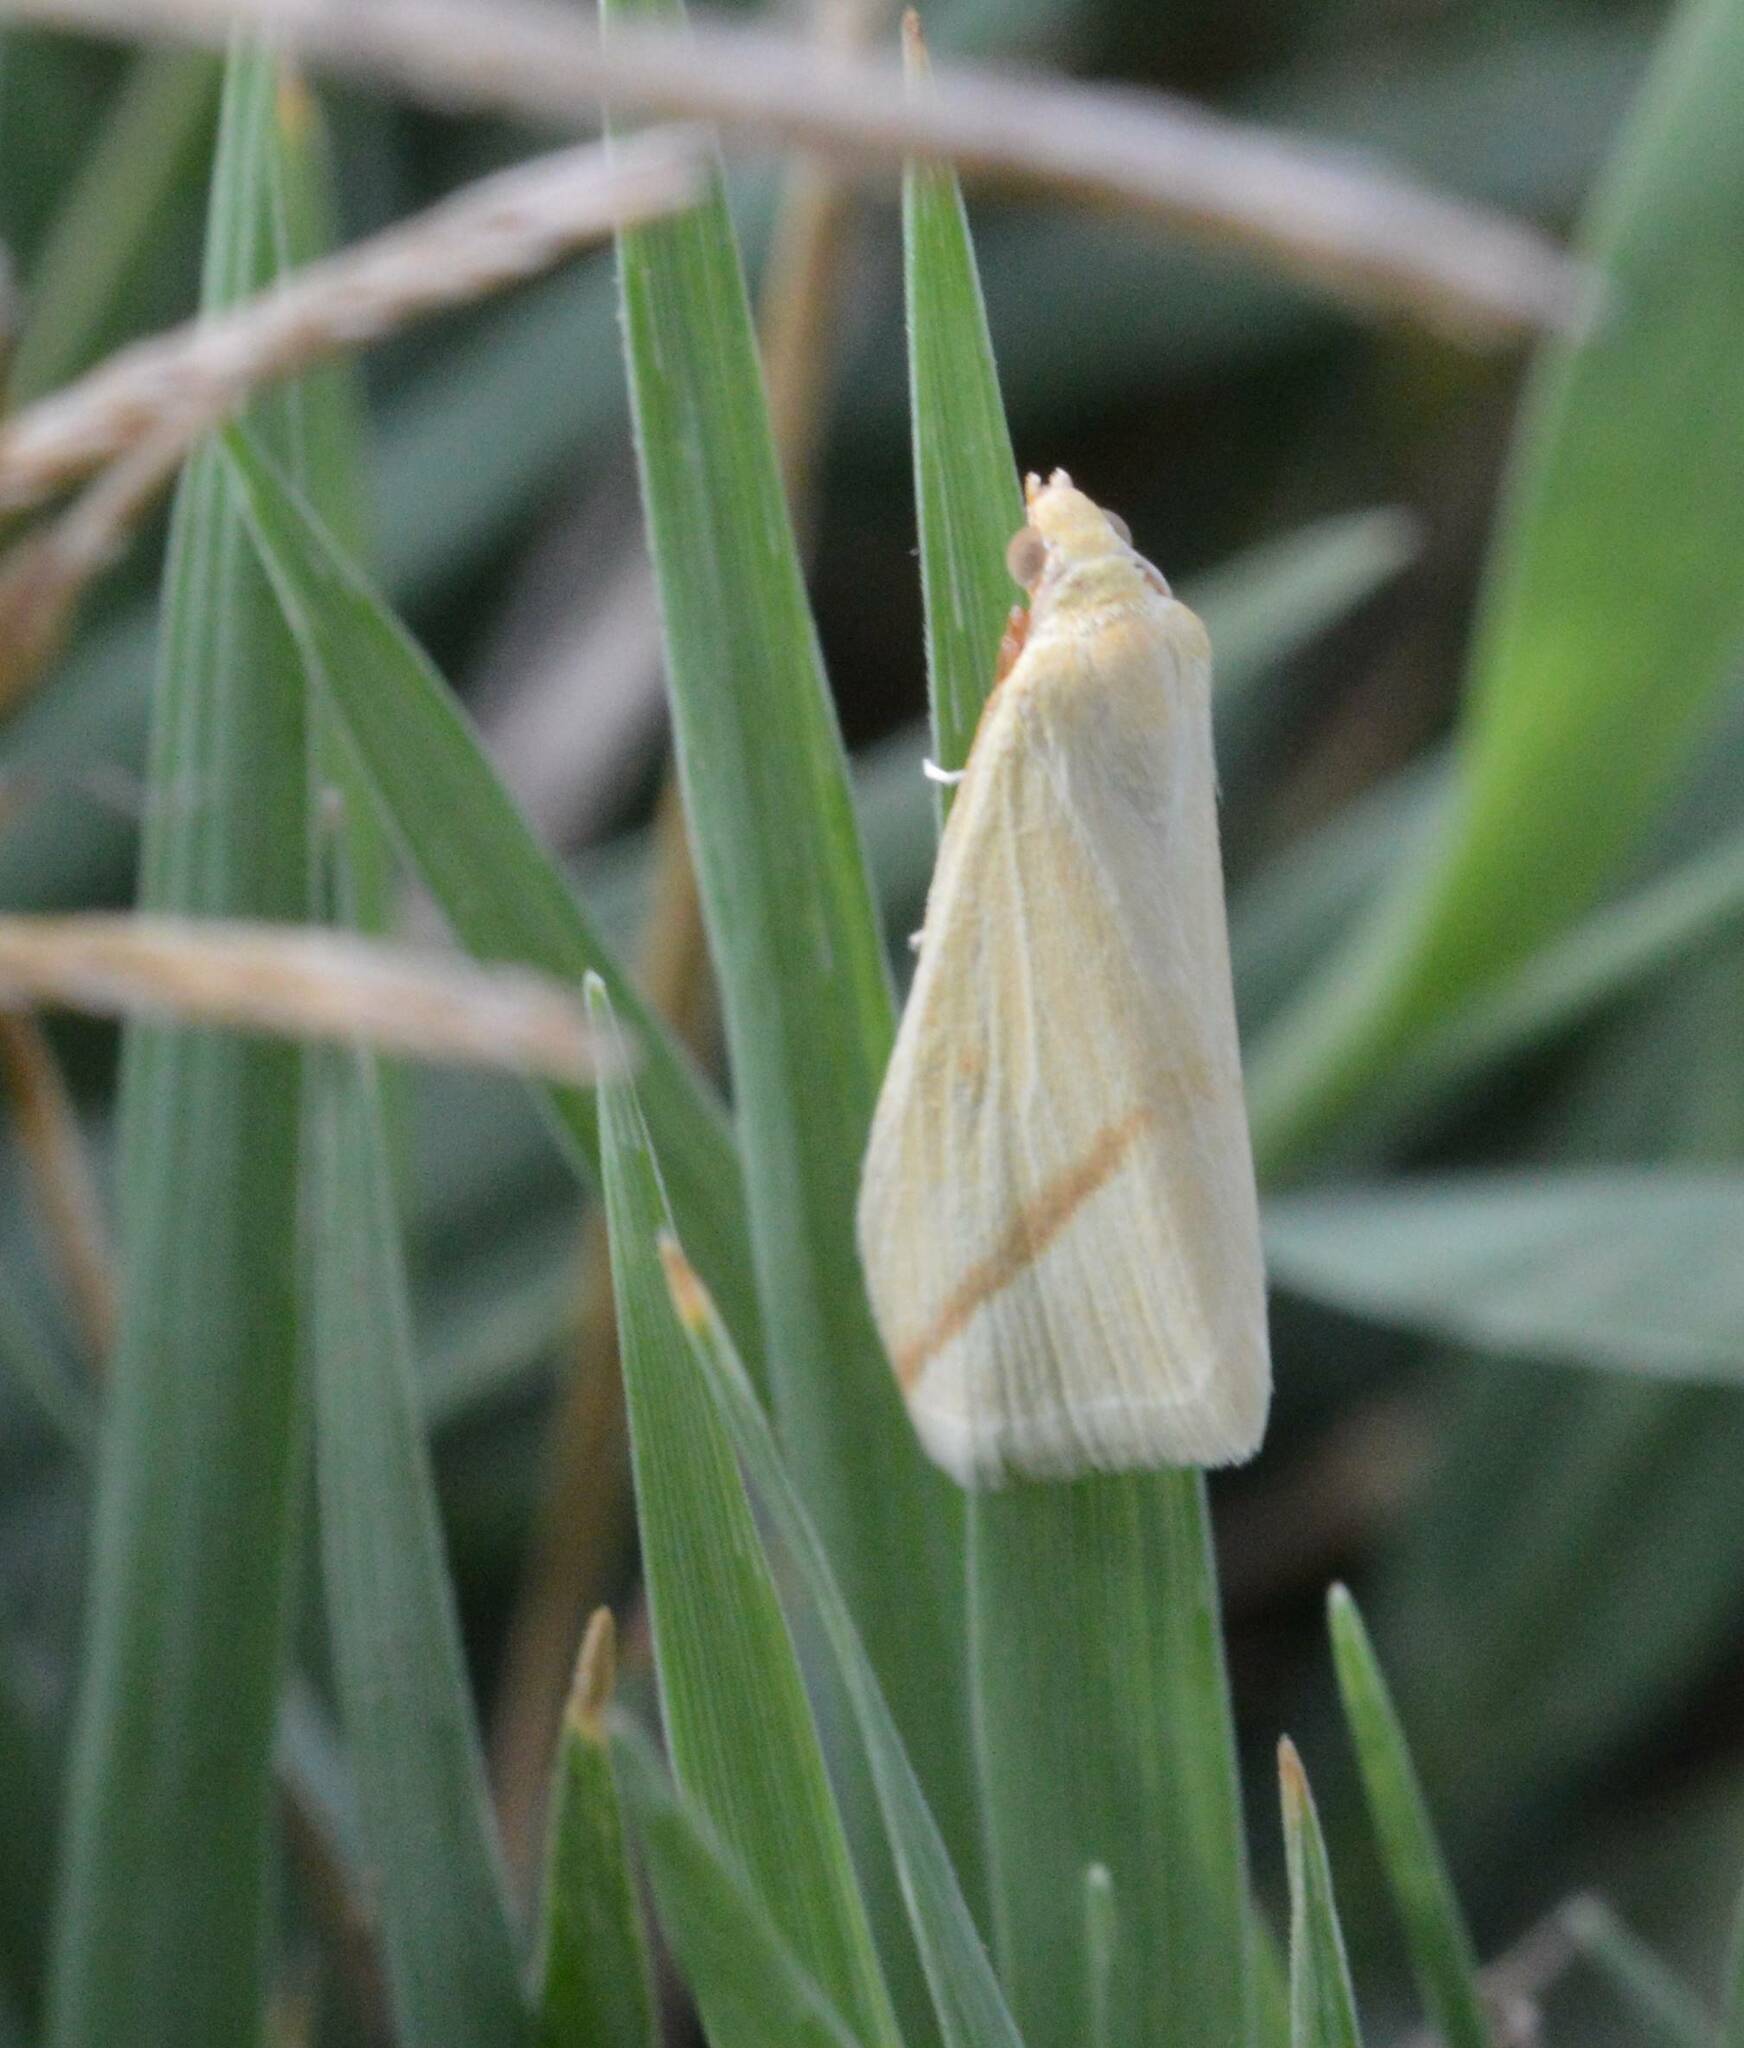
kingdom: Animalia
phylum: Arthropoda
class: Insecta
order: Lepidoptera
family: Geometridae
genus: Rhodometra
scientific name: Rhodometra sacraria
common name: Vestal
